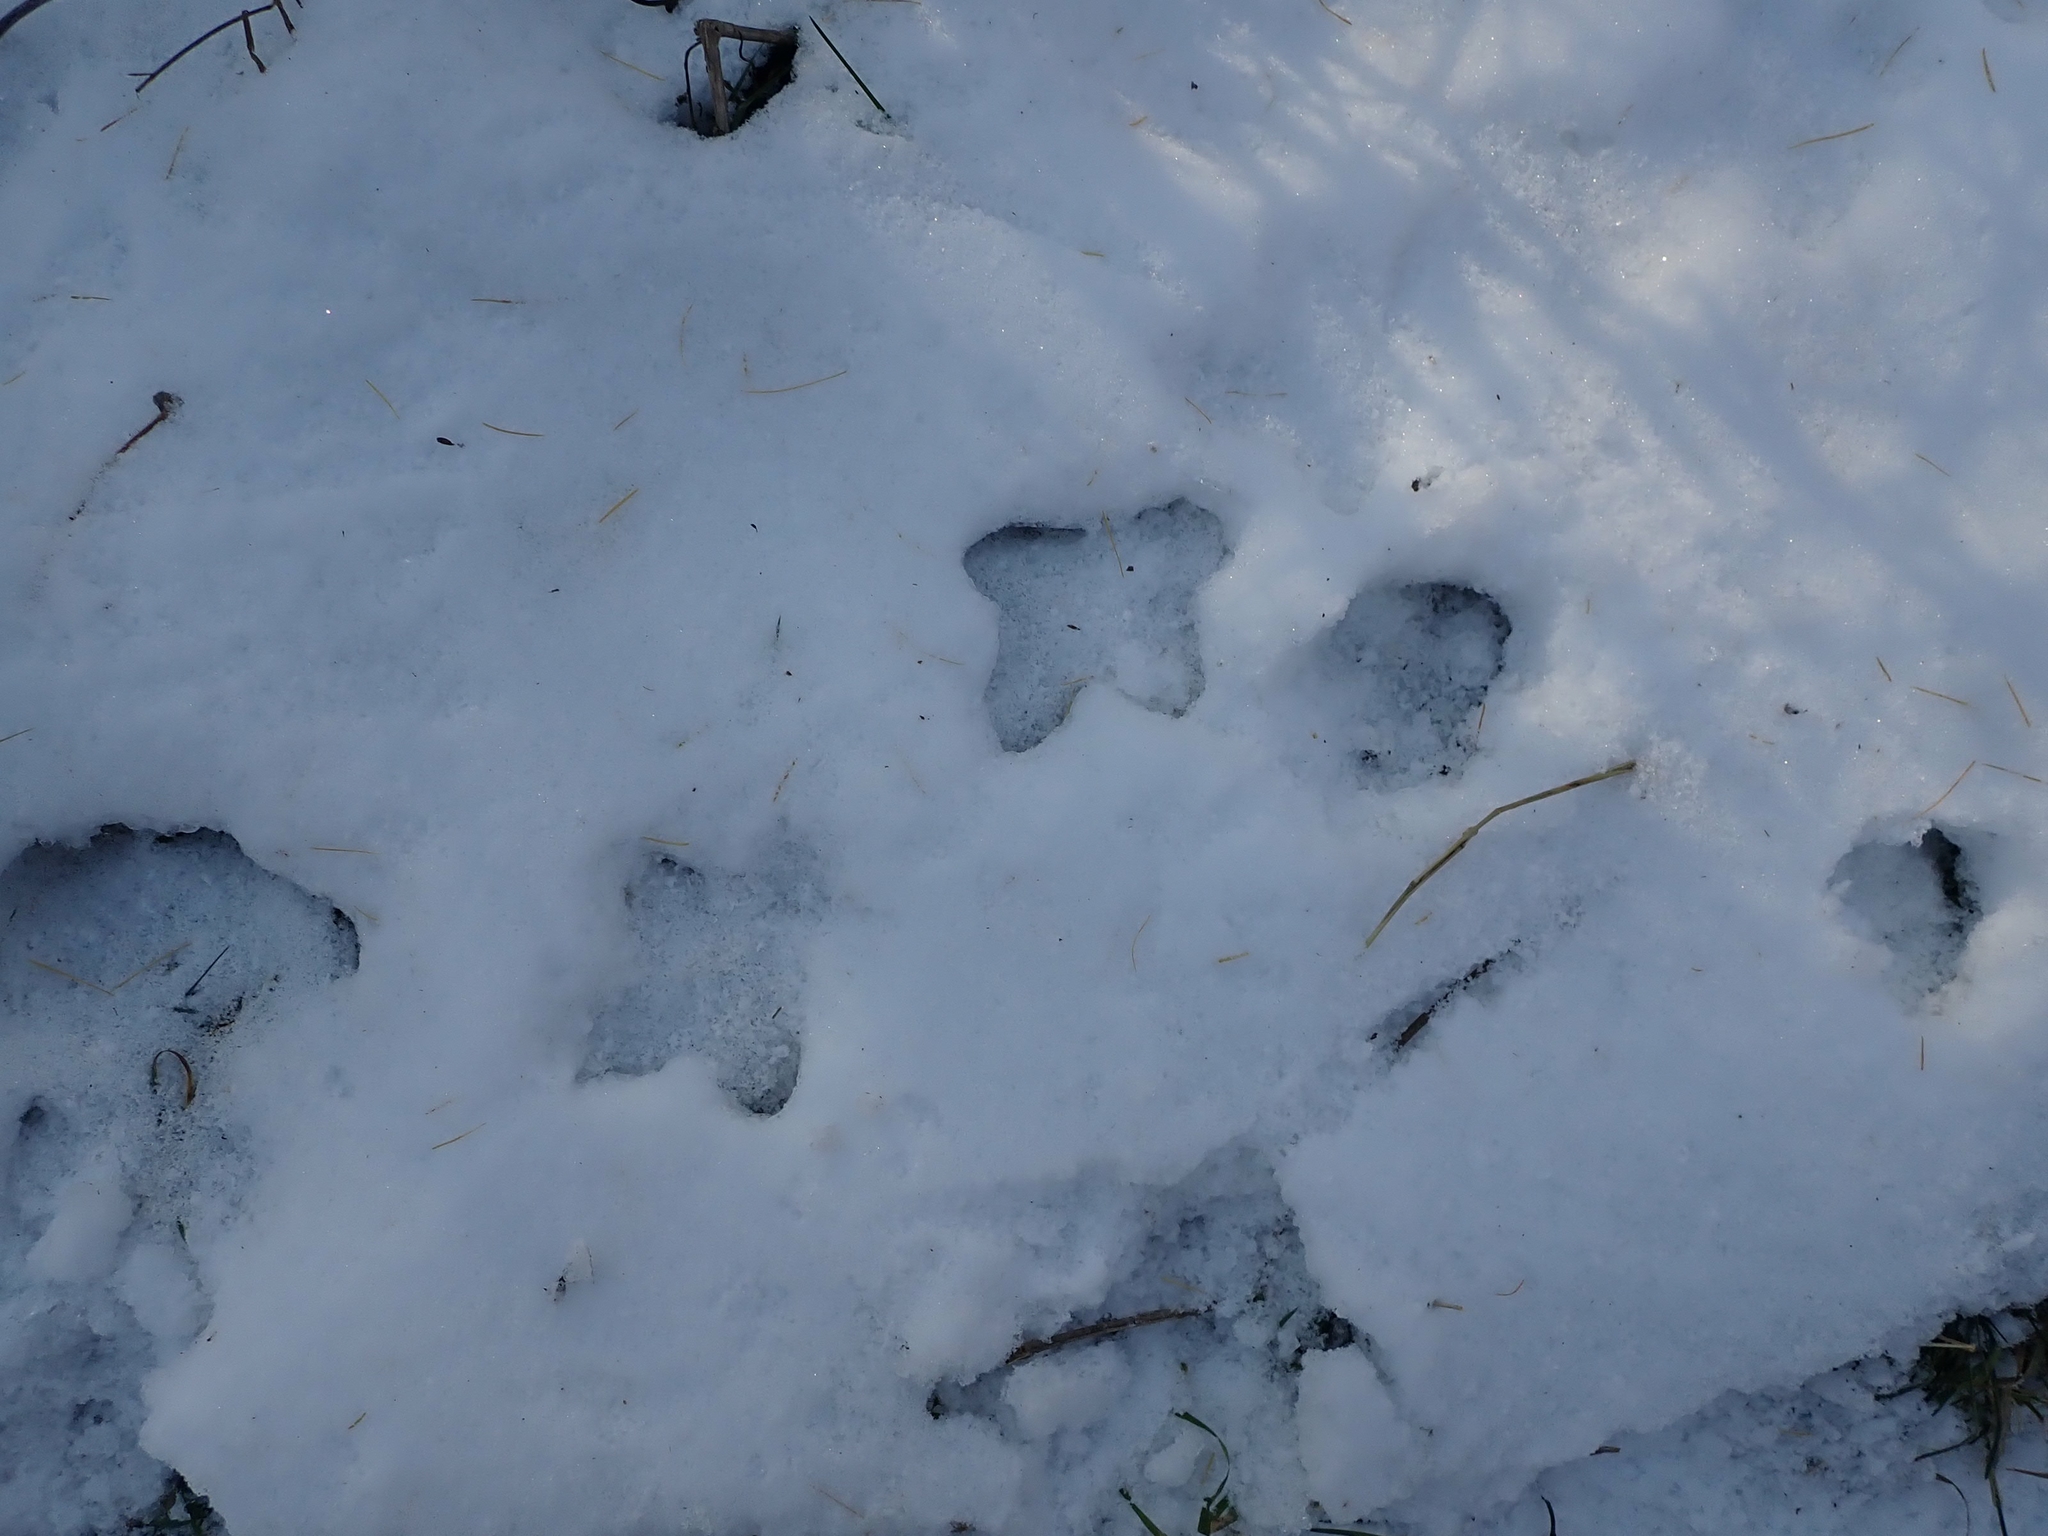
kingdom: Animalia
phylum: Chordata
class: Aves
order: Galliformes
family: Phasianidae
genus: Bonasa
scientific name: Bonasa umbellus
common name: Ruffed grouse
